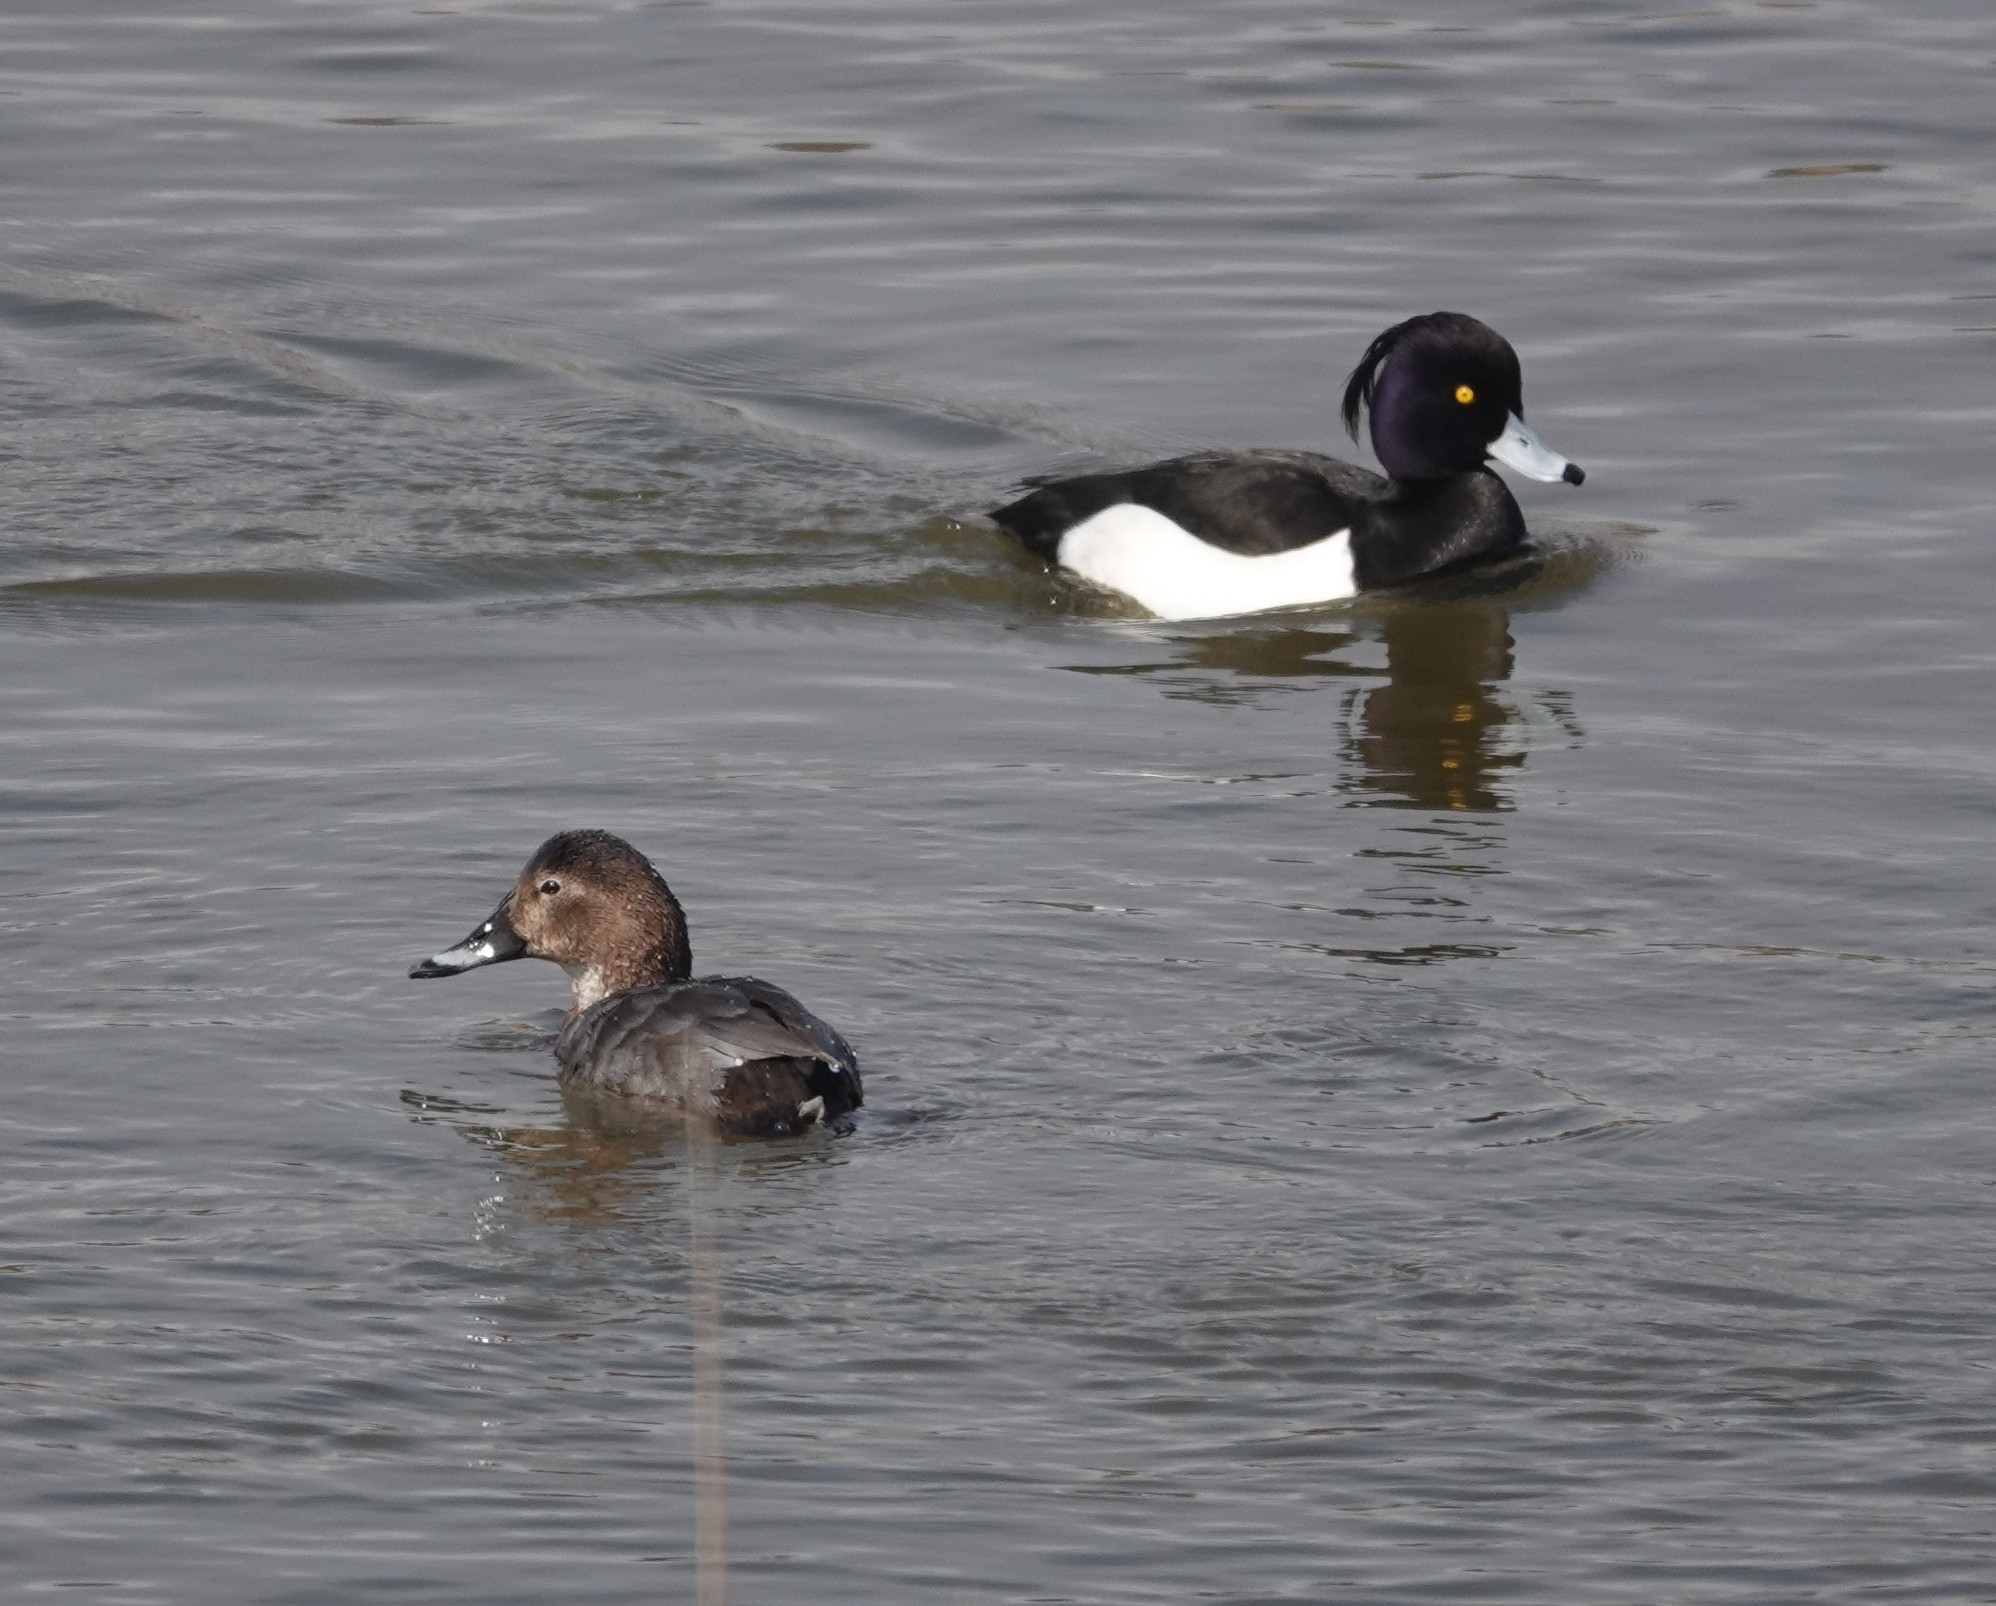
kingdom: Animalia
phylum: Chordata
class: Aves
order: Anseriformes
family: Anatidae
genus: Aythya
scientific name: Aythya ferina
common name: Common pochard
